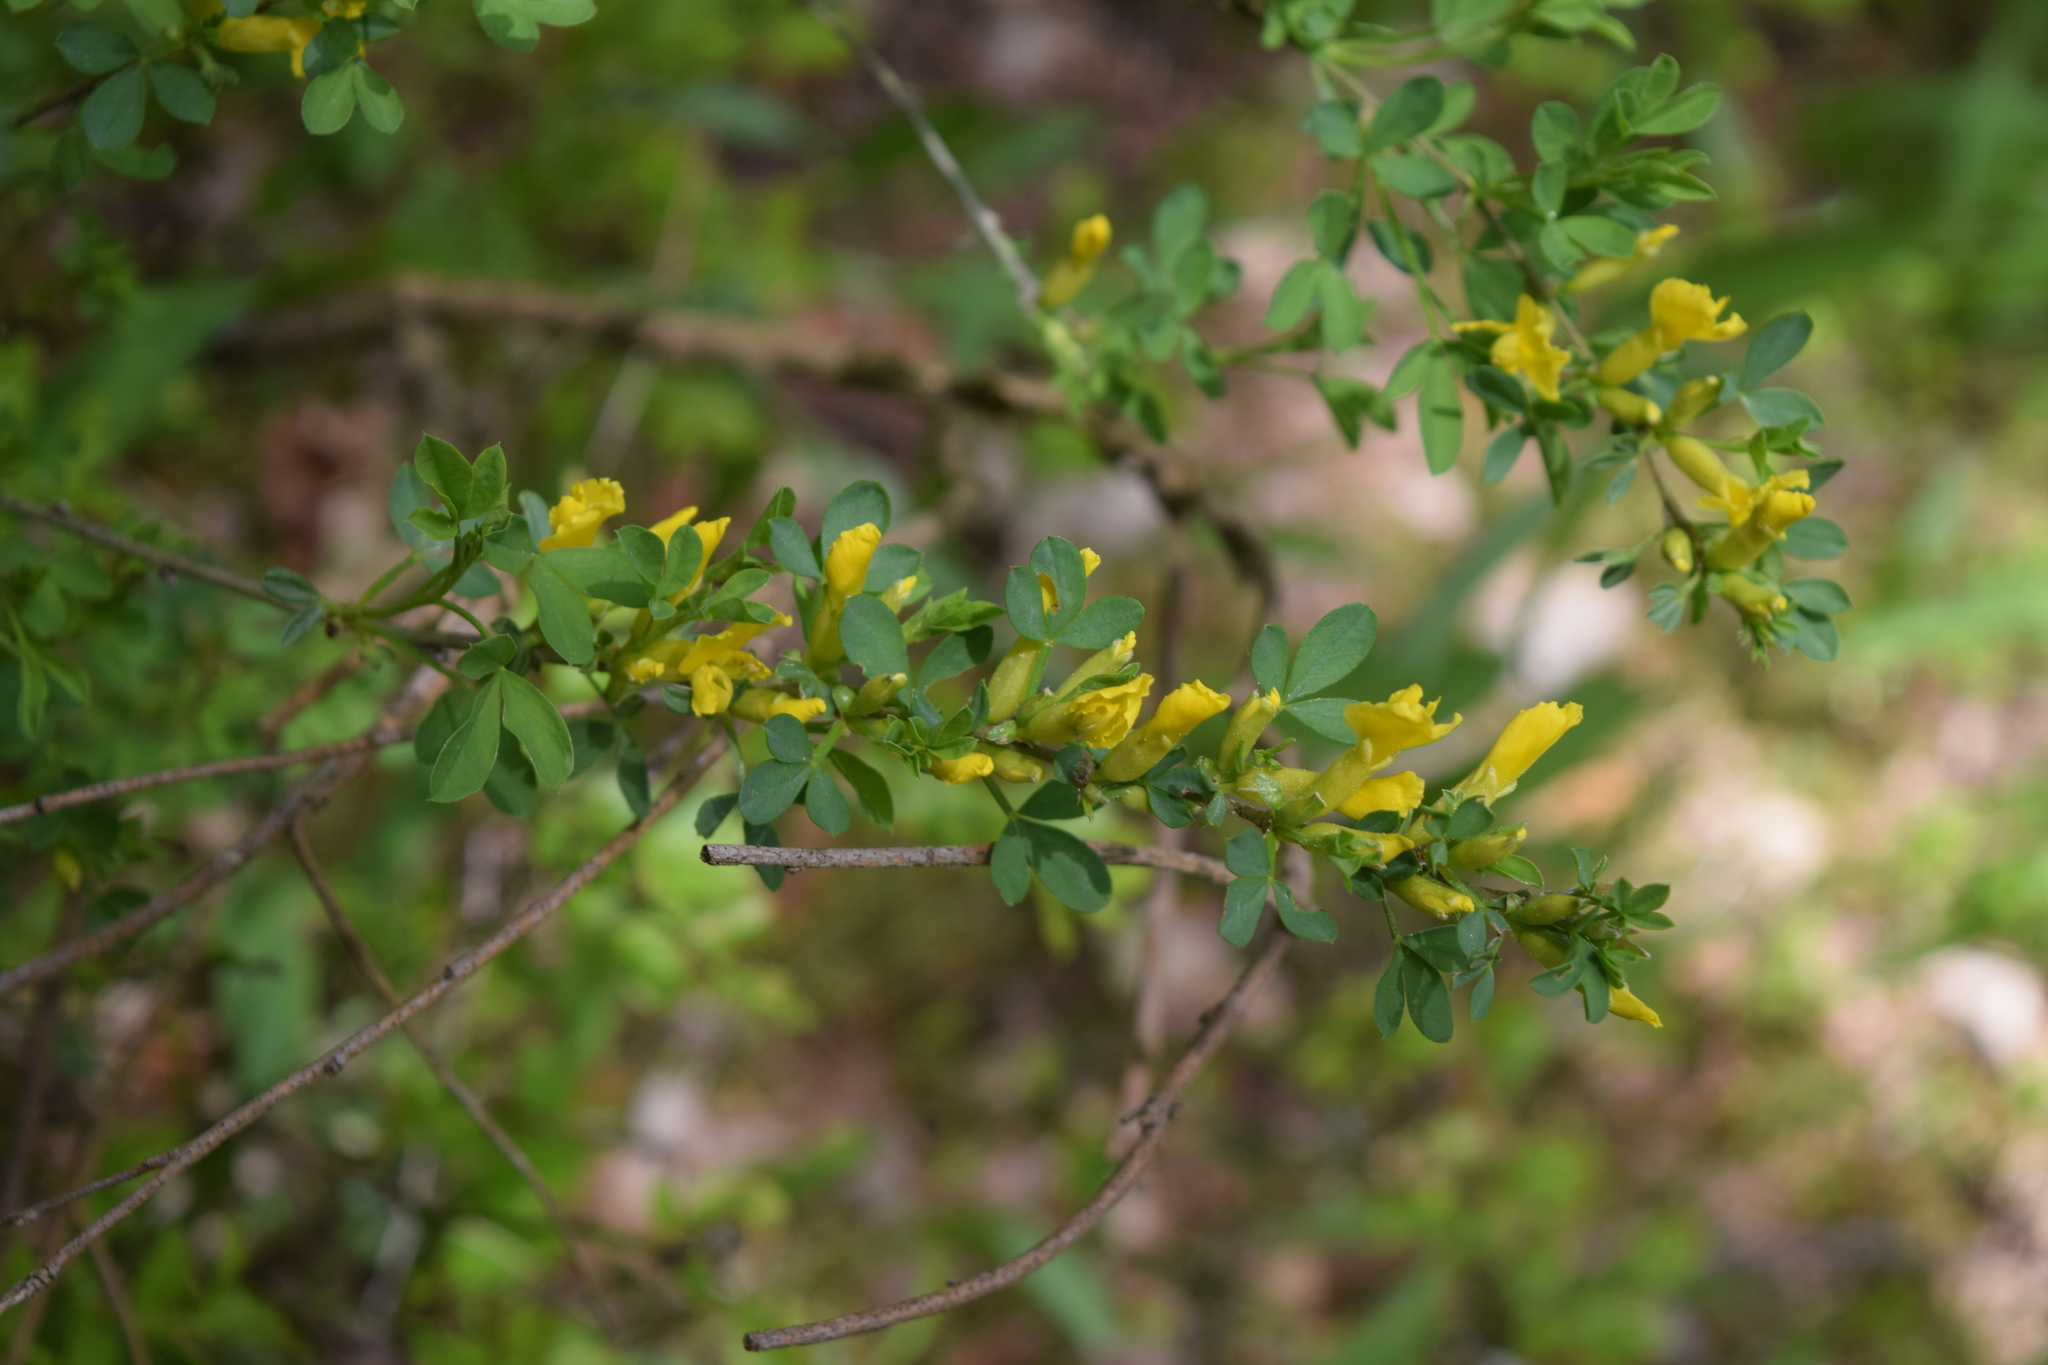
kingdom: Plantae
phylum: Tracheophyta
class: Magnoliopsida
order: Fabales
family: Fabaceae
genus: Chamaecytisus
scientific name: Chamaecytisus ruthenicus
